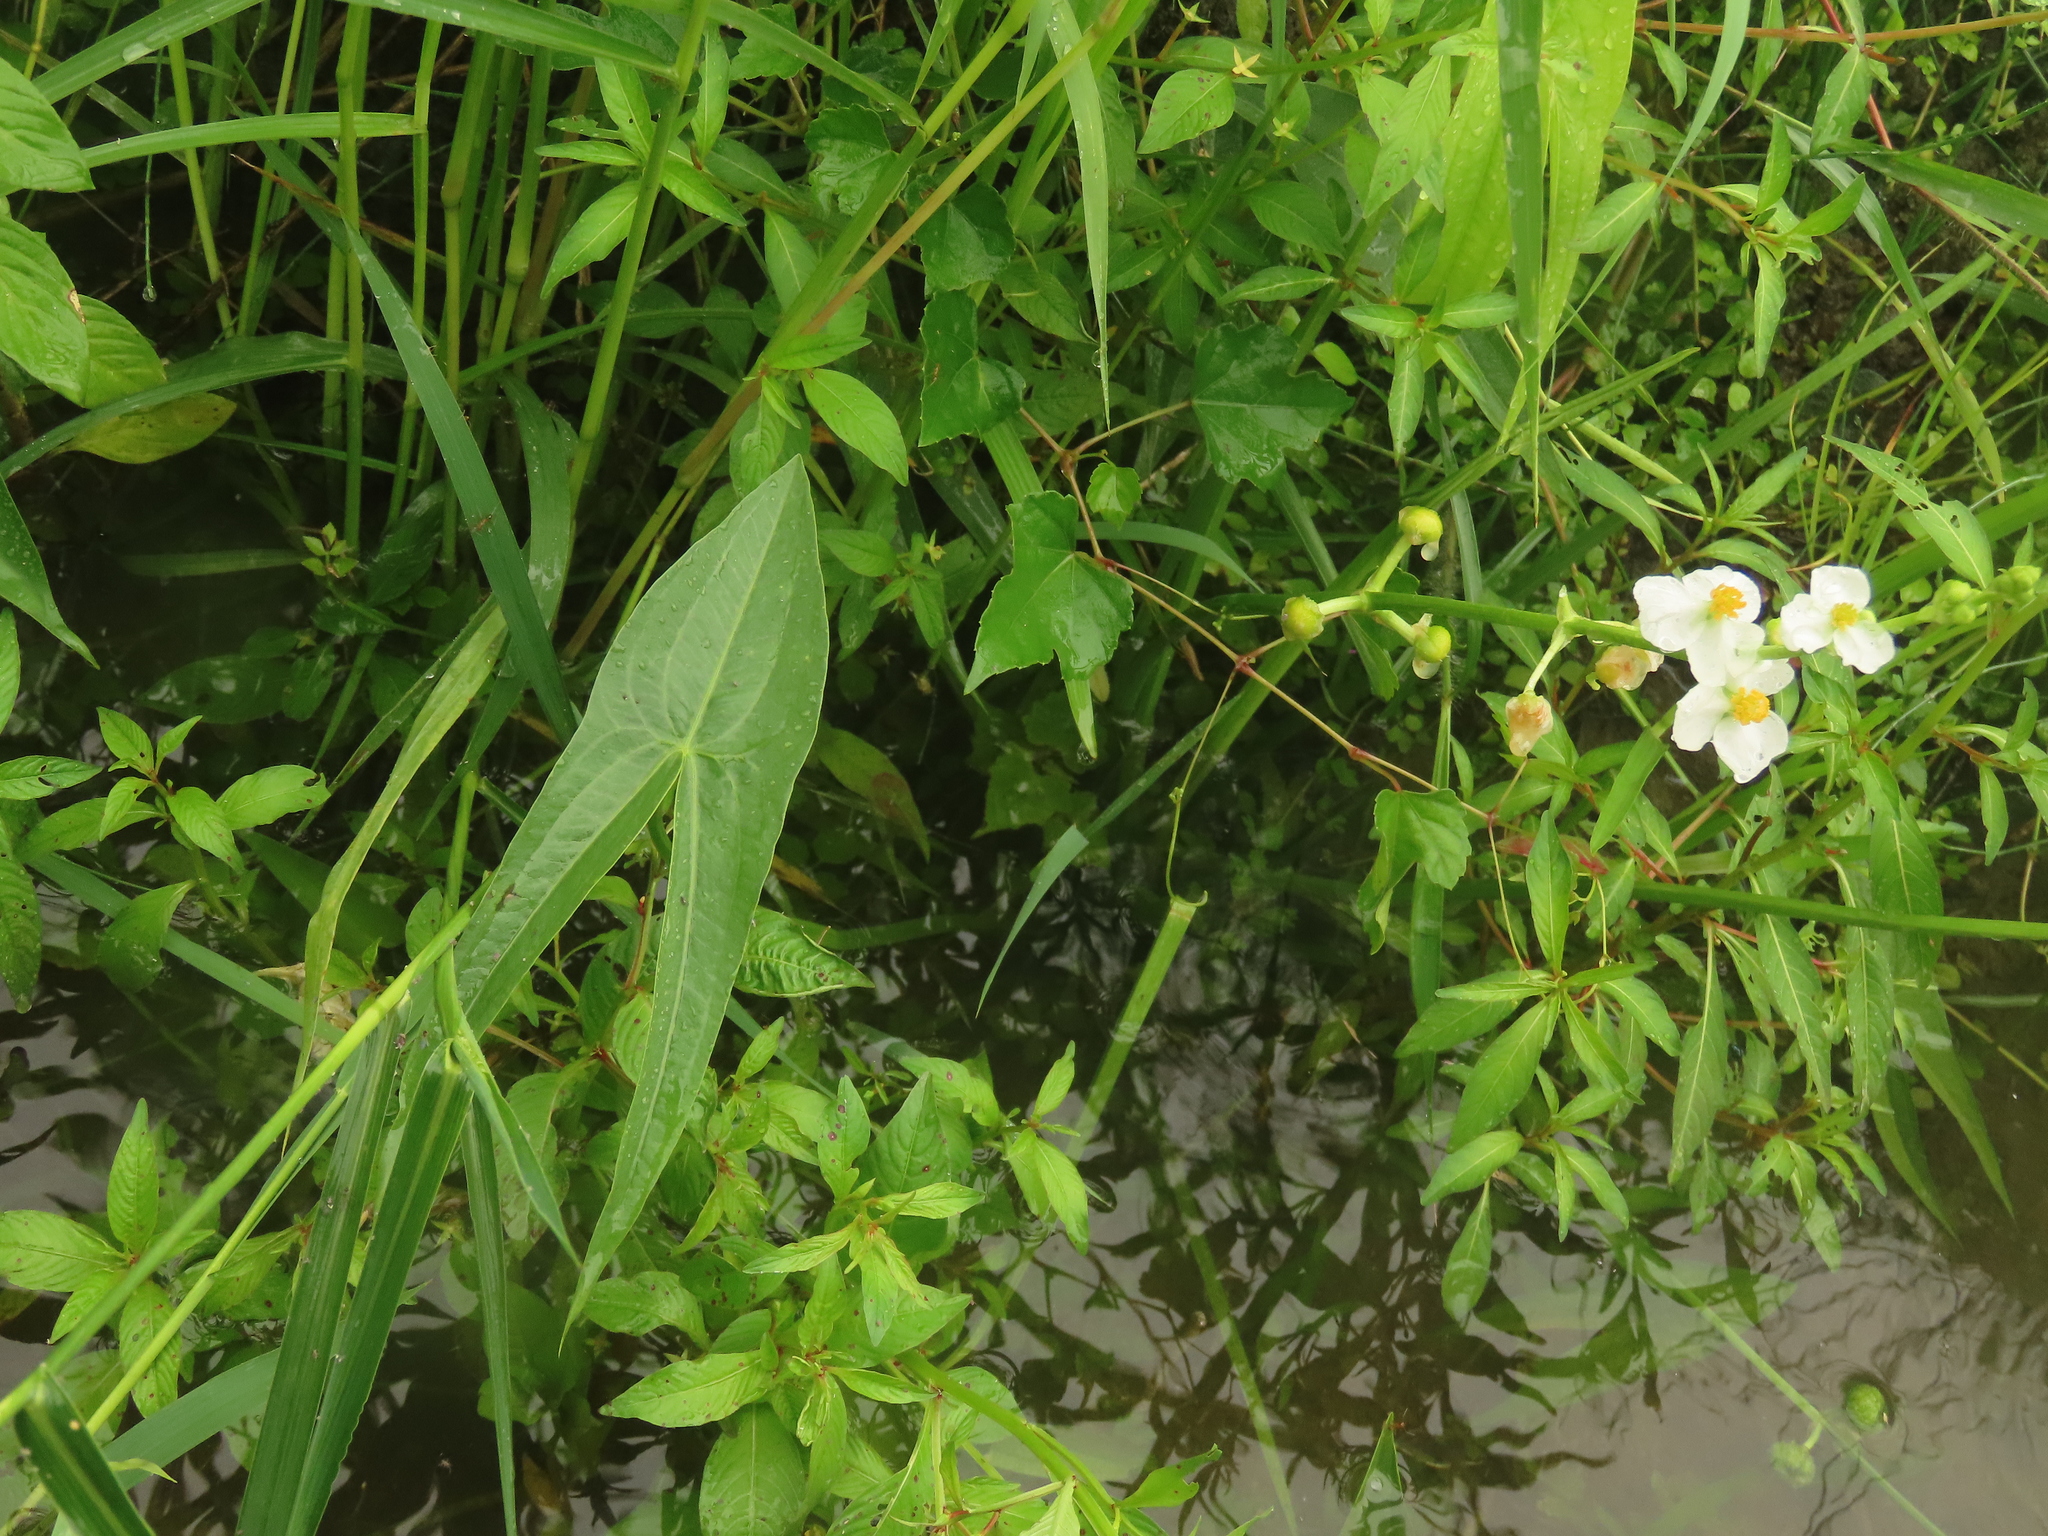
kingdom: Plantae
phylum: Tracheophyta
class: Liliopsida
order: Alismatales
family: Alismataceae
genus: Sagittaria
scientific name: Sagittaria trifolia
